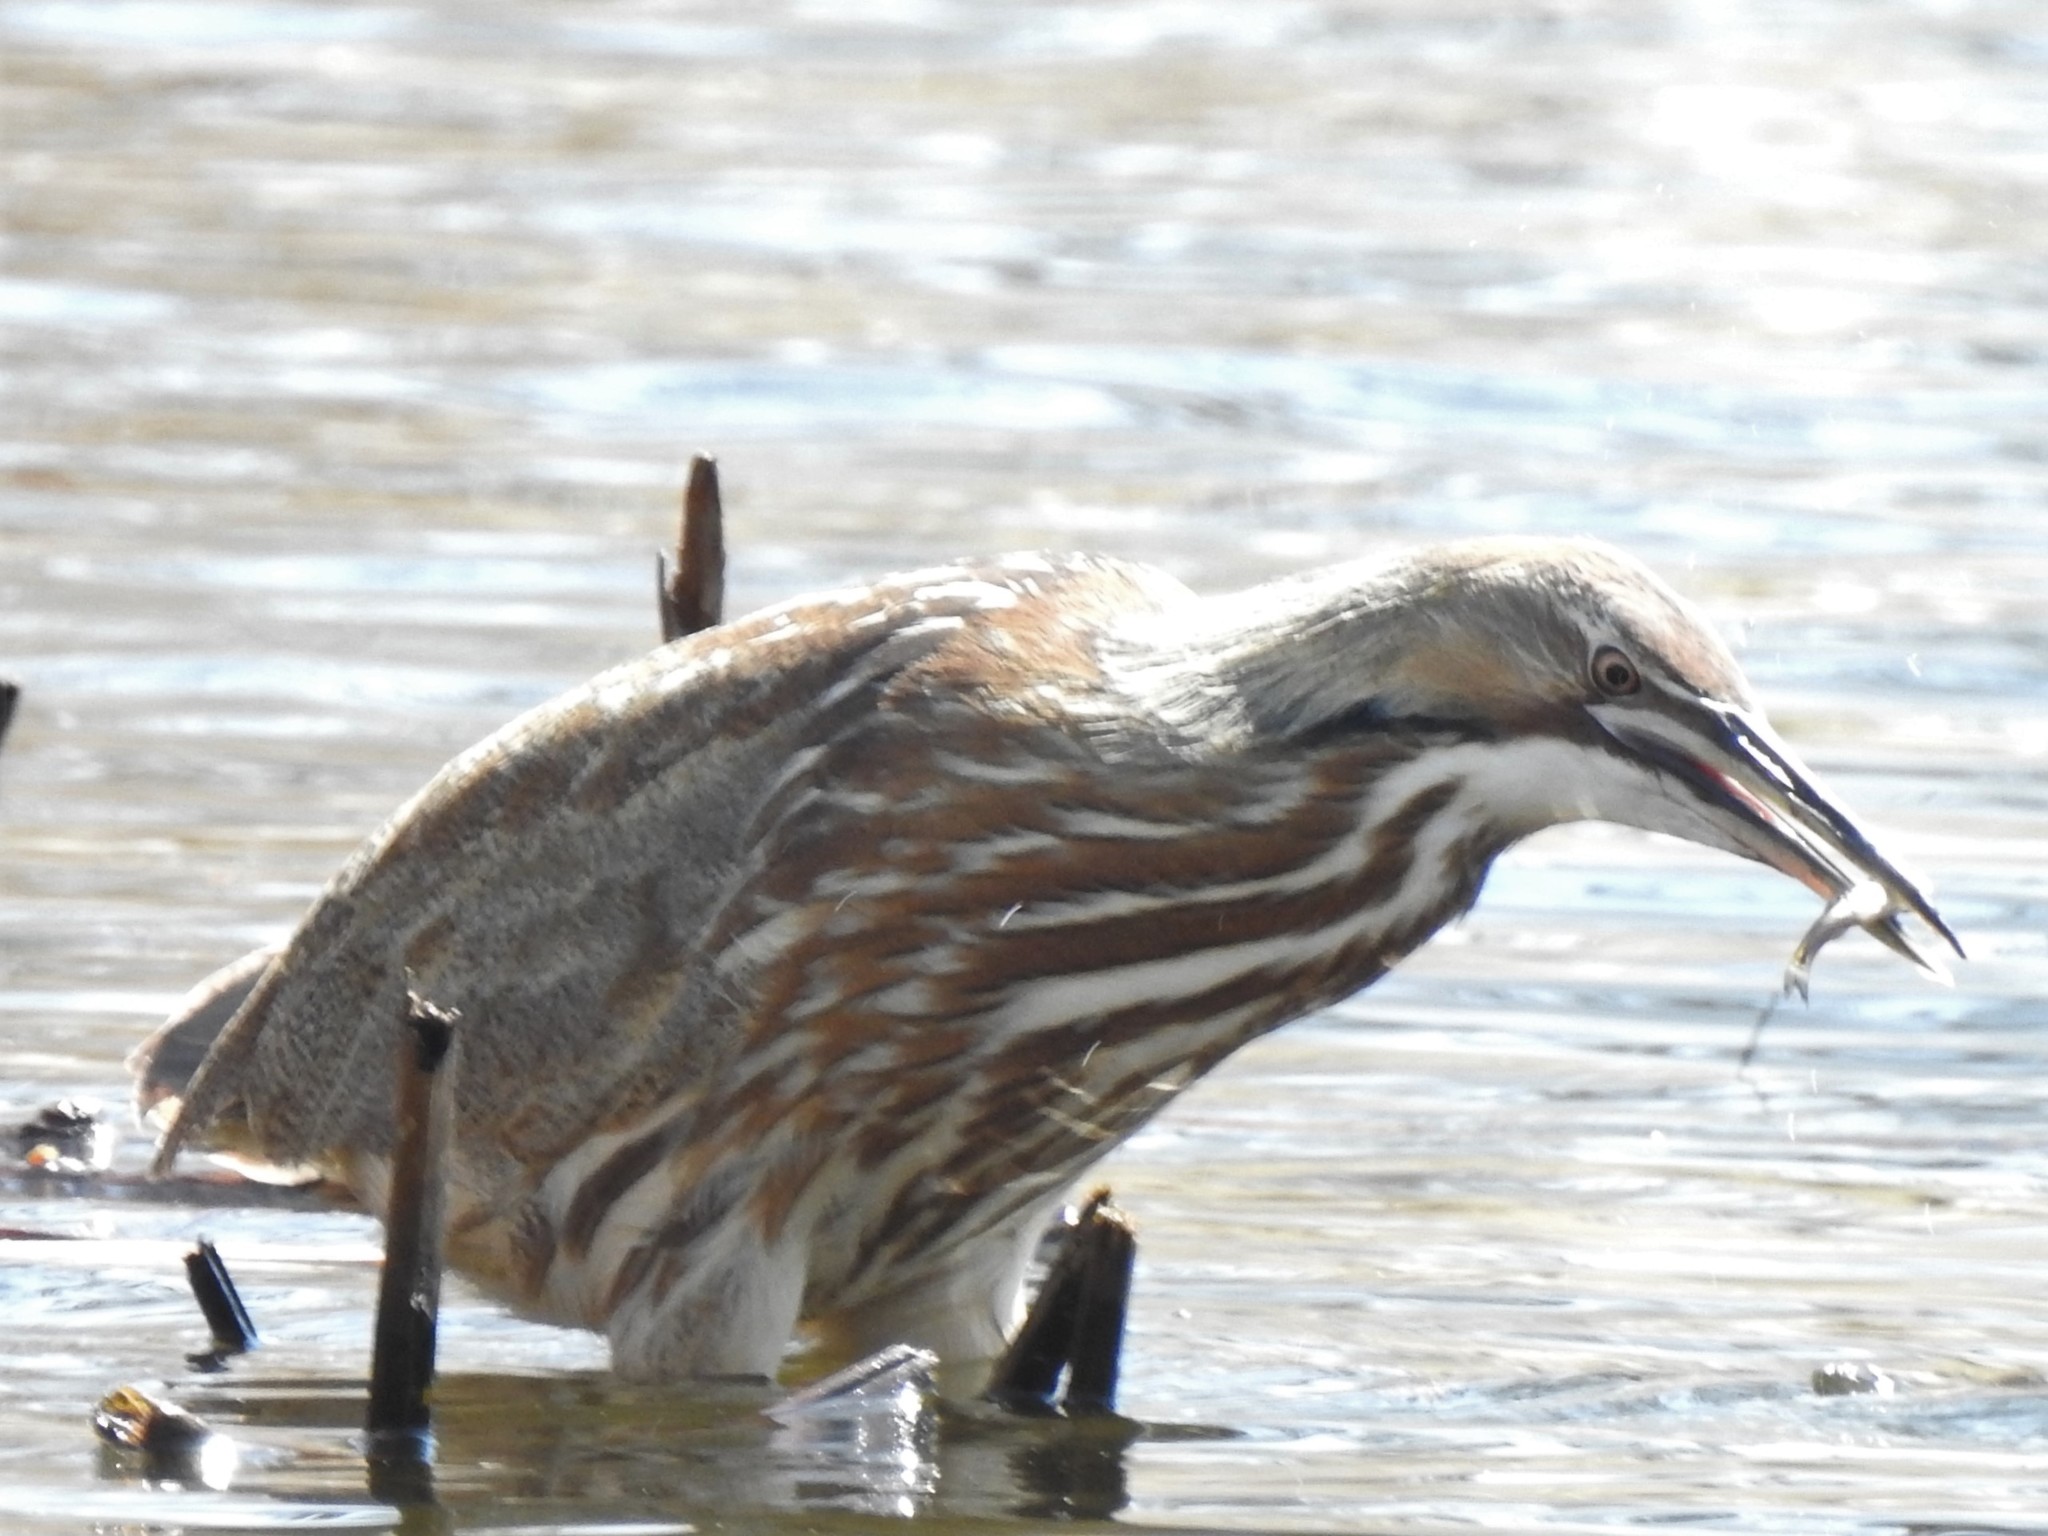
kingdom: Animalia
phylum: Chordata
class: Aves
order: Pelecaniformes
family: Ardeidae
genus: Botaurus
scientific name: Botaurus lentiginosus
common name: American bittern
